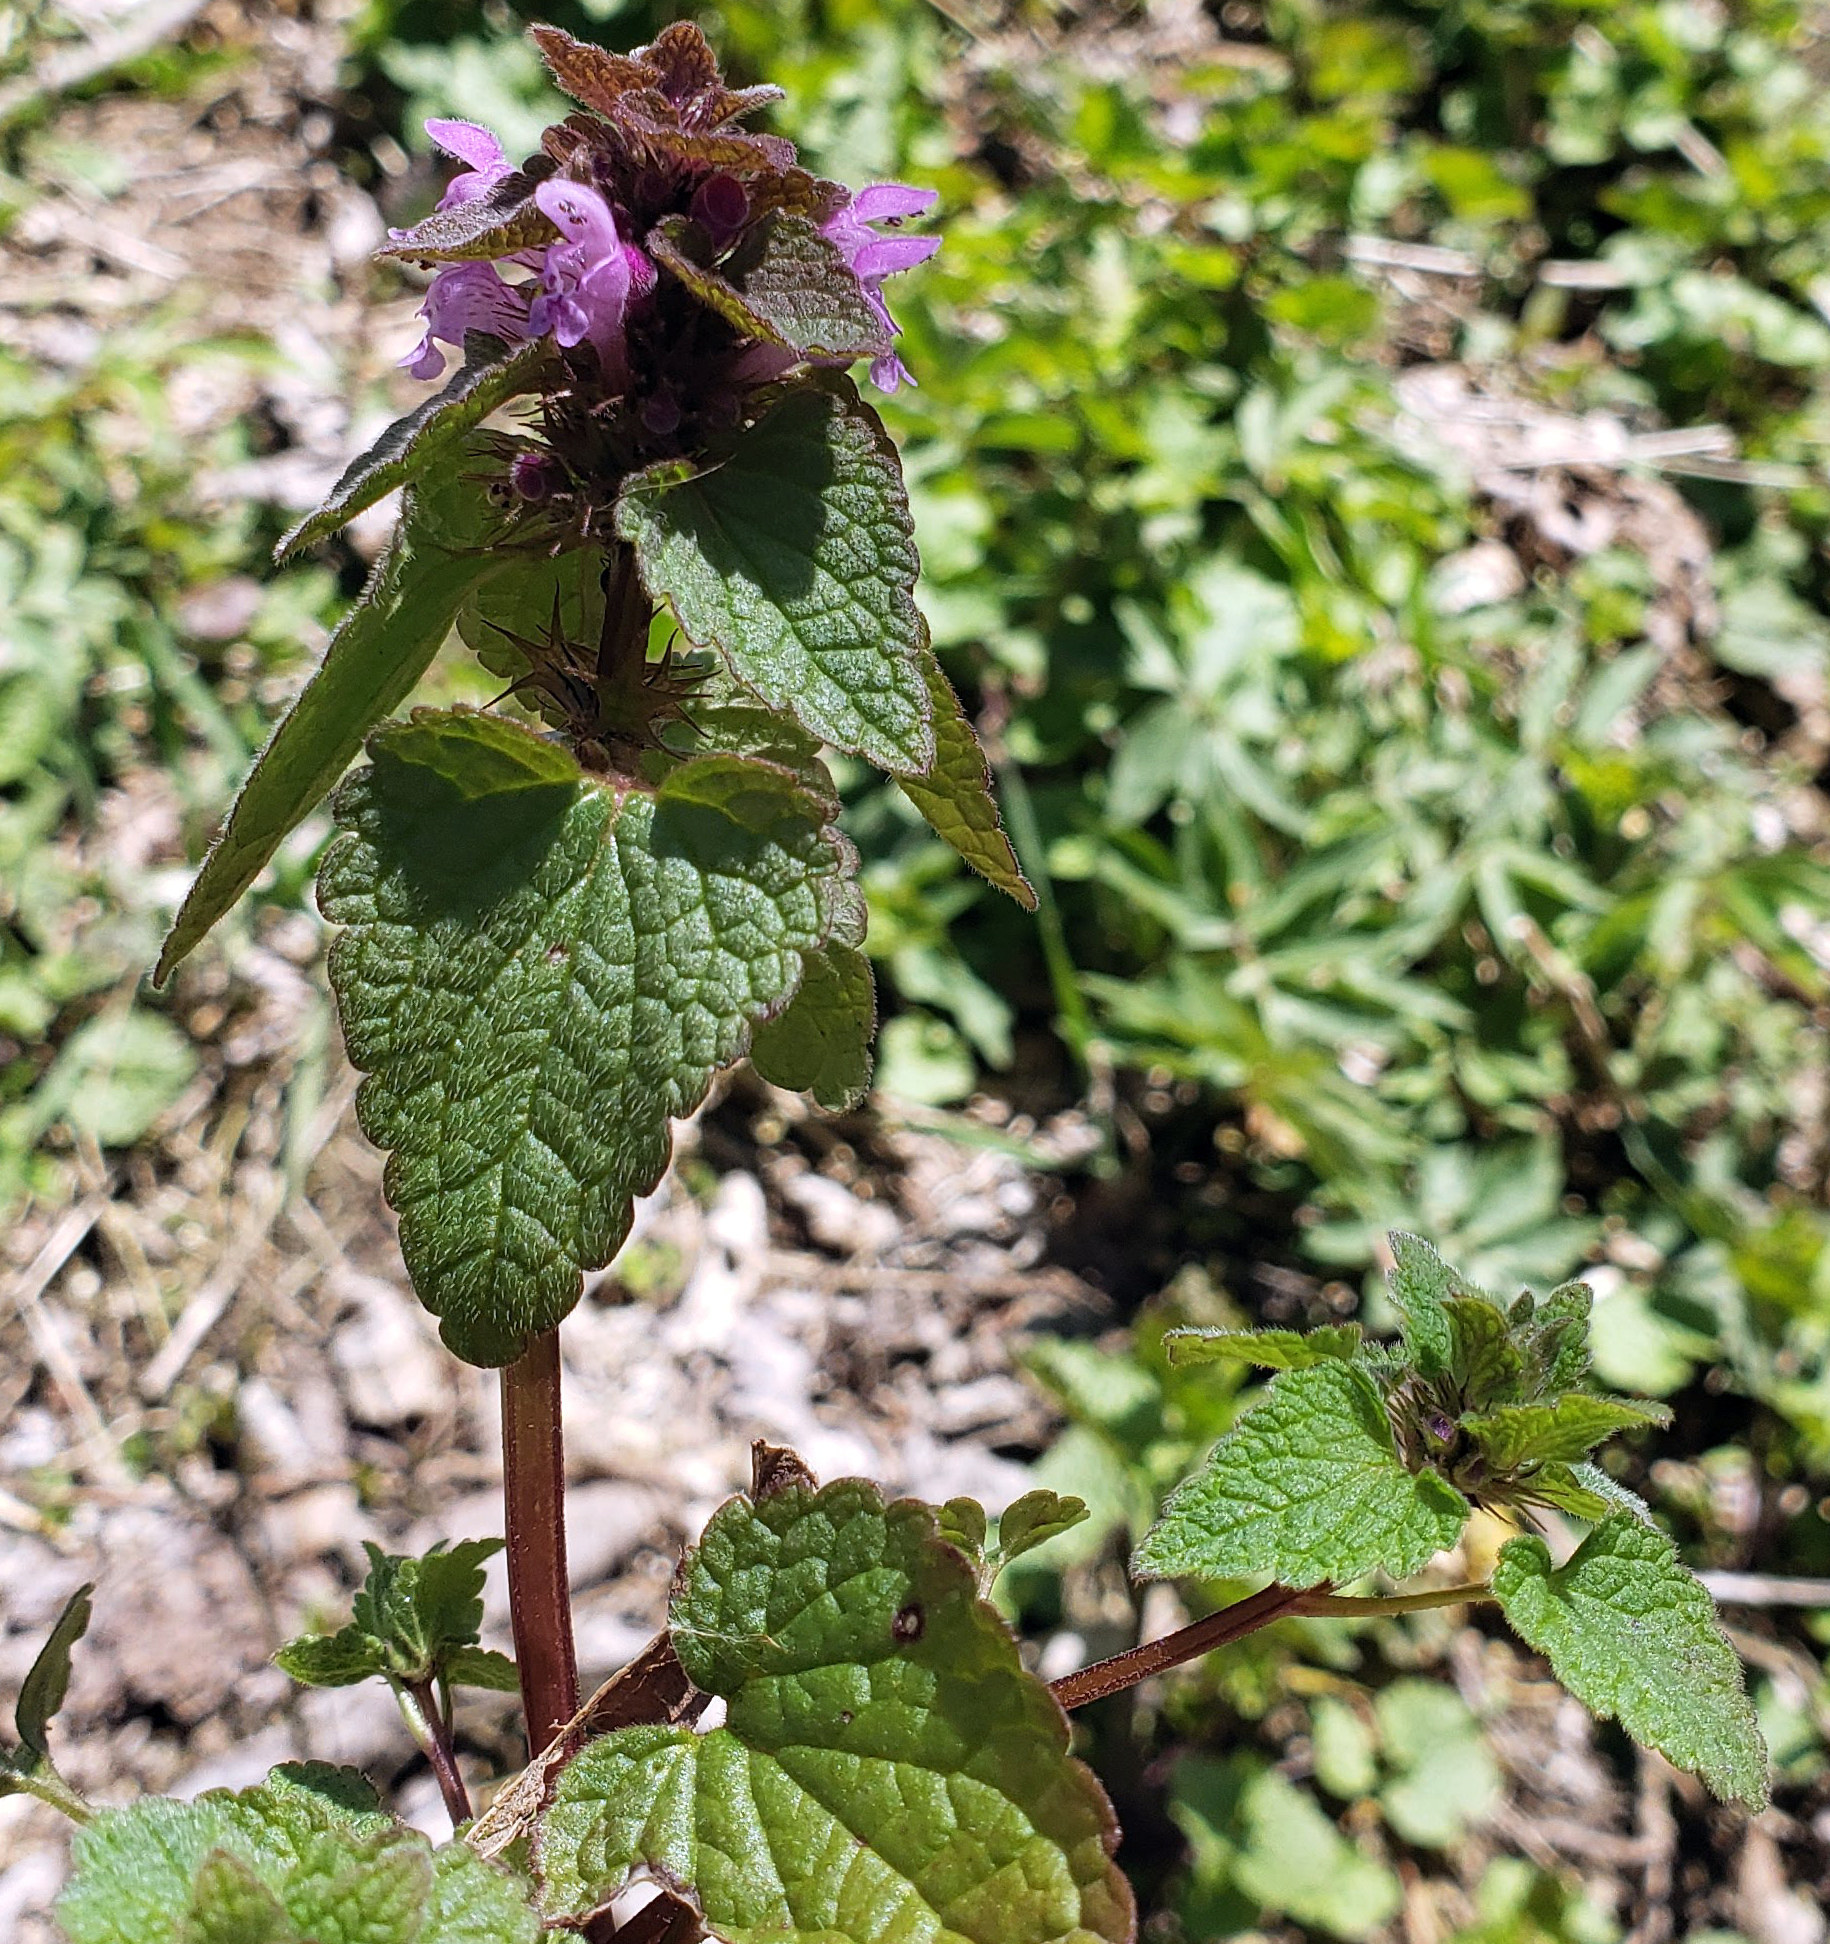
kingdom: Plantae
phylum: Tracheophyta
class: Magnoliopsida
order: Lamiales
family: Lamiaceae
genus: Lamium
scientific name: Lamium purpureum
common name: Red dead-nettle
